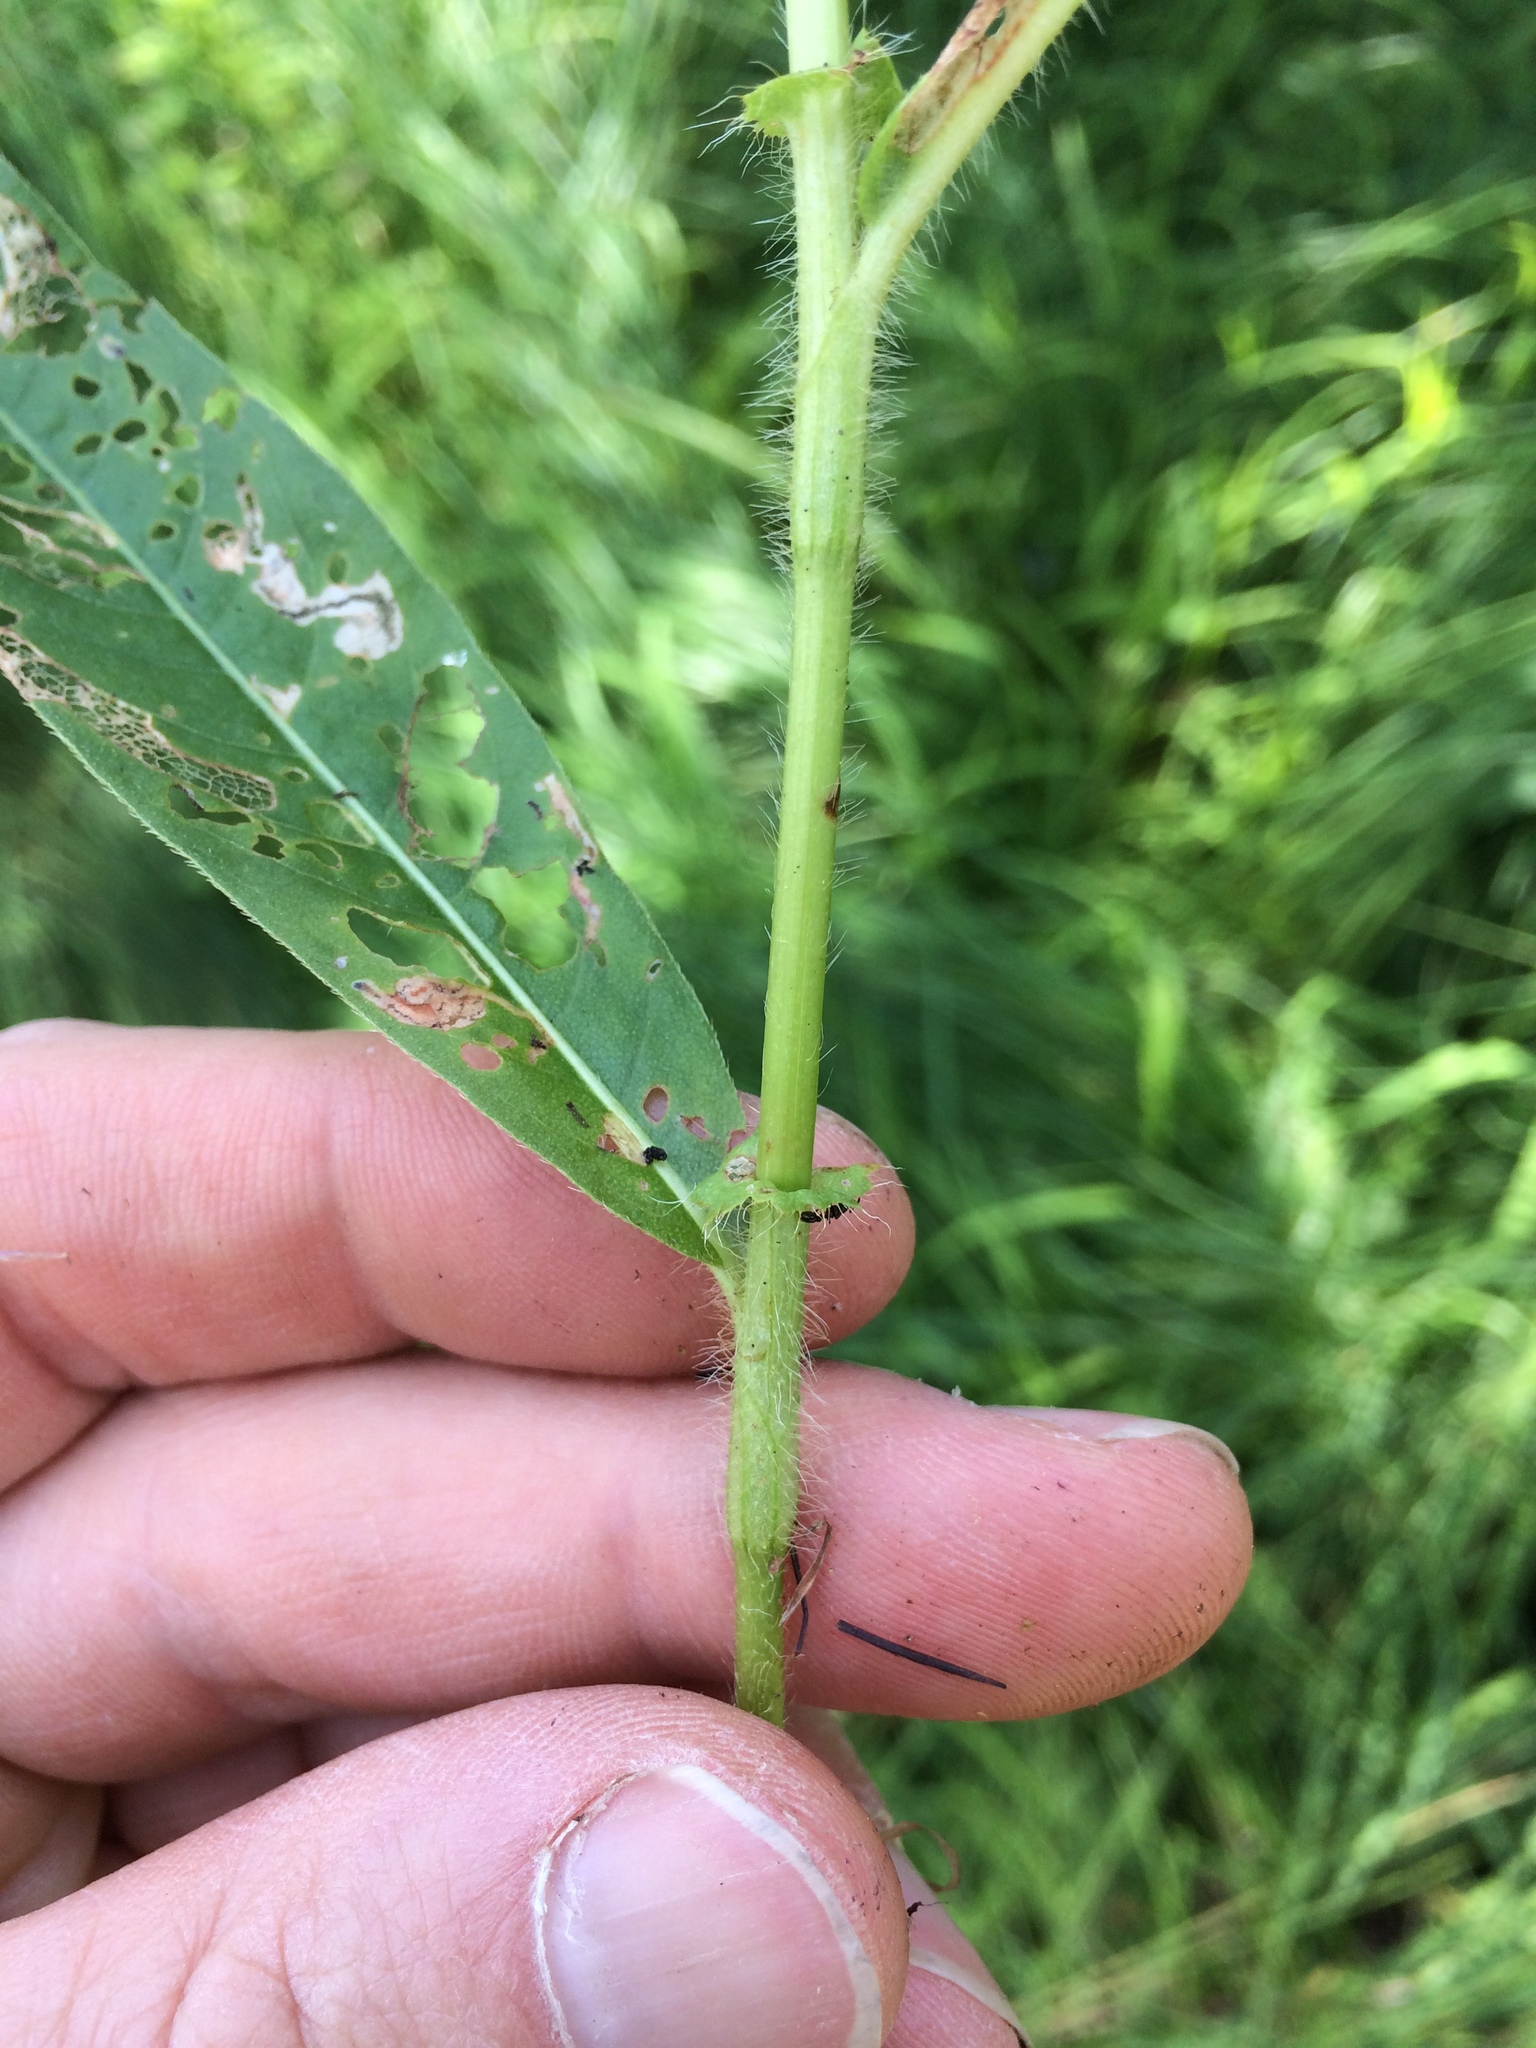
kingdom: Plantae
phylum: Tracheophyta
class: Magnoliopsida
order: Caryophyllales
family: Polygonaceae
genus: Persicaria
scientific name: Persicaria amphibia
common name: Amphibious bistort
